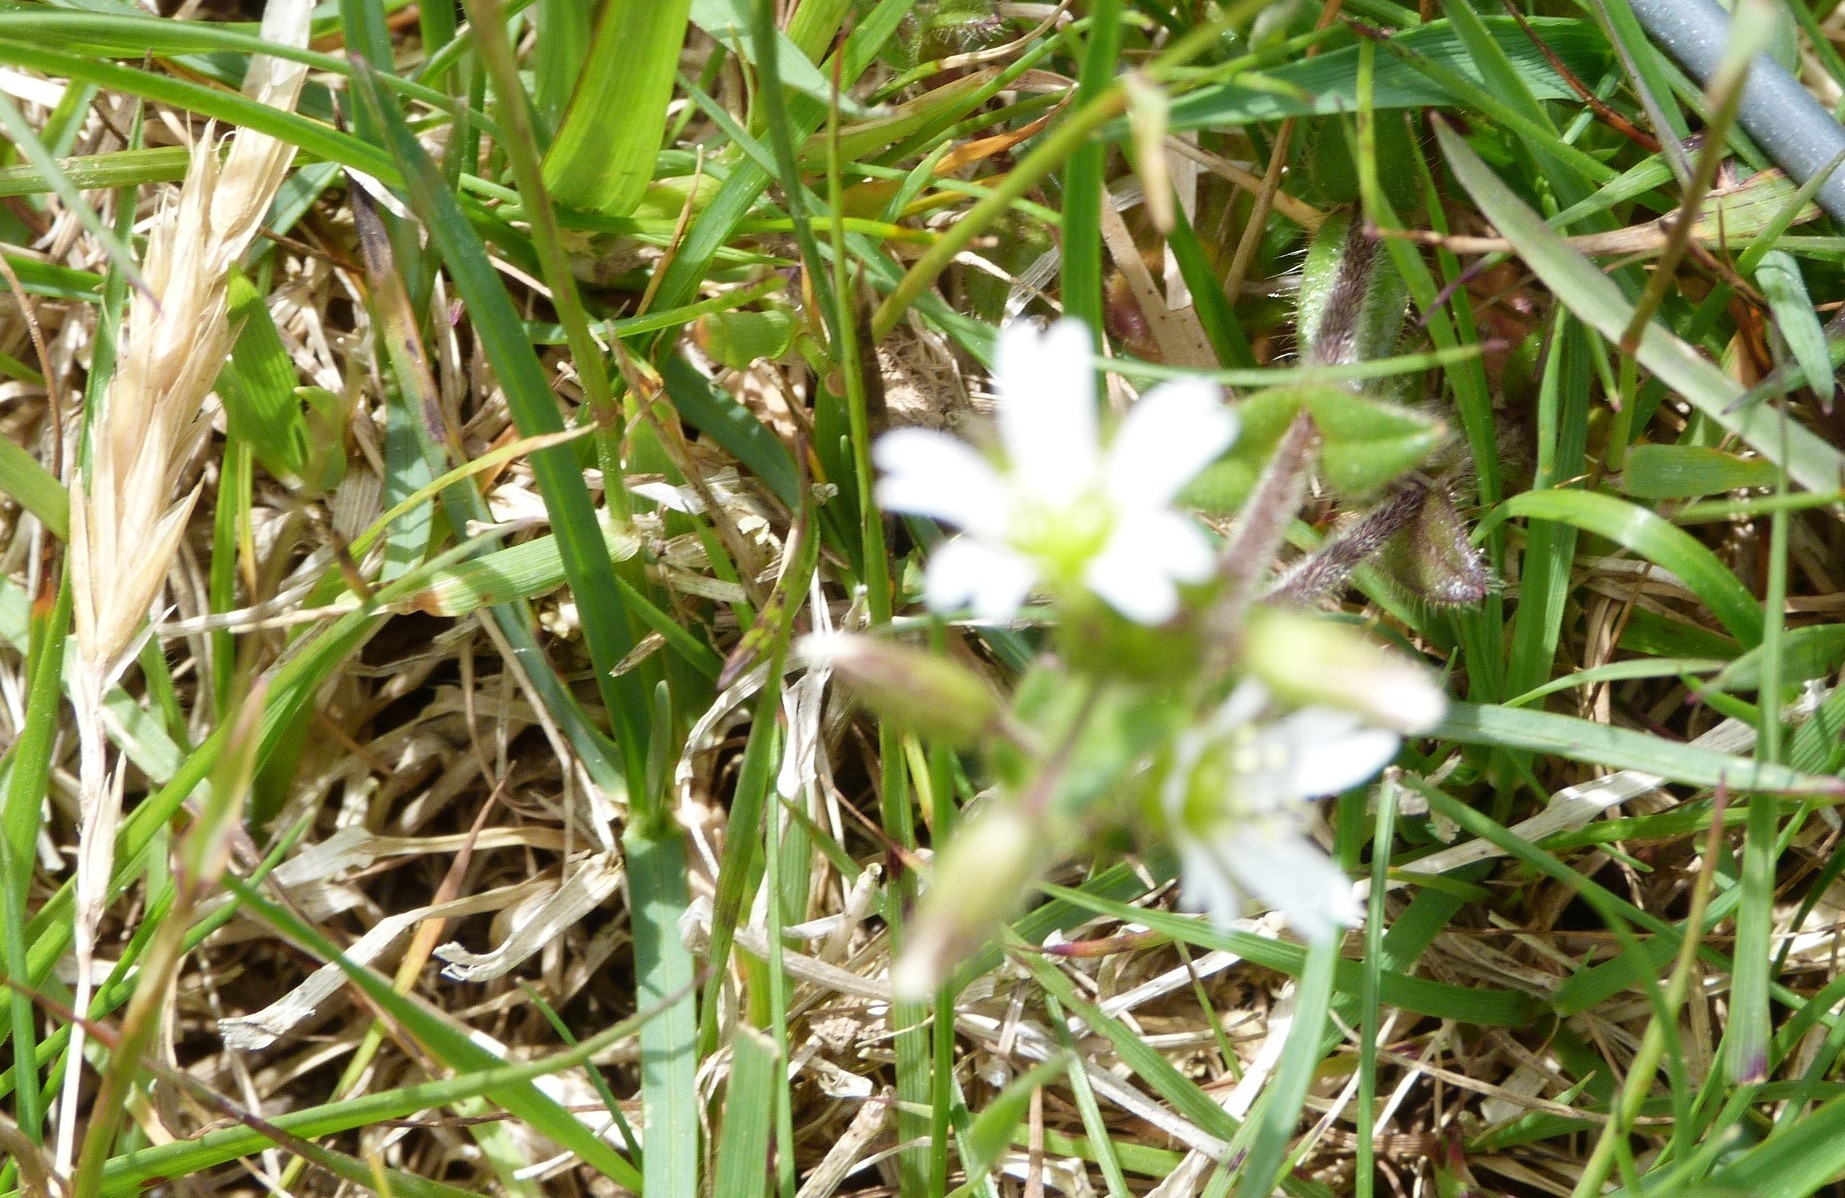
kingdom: Plantae
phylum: Tracheophyta
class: Magnoliopsida
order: Caryophyllales
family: Caryophyllaceae
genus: Cerastium
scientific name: Cerastium fontanum
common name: Common mouse-ear
